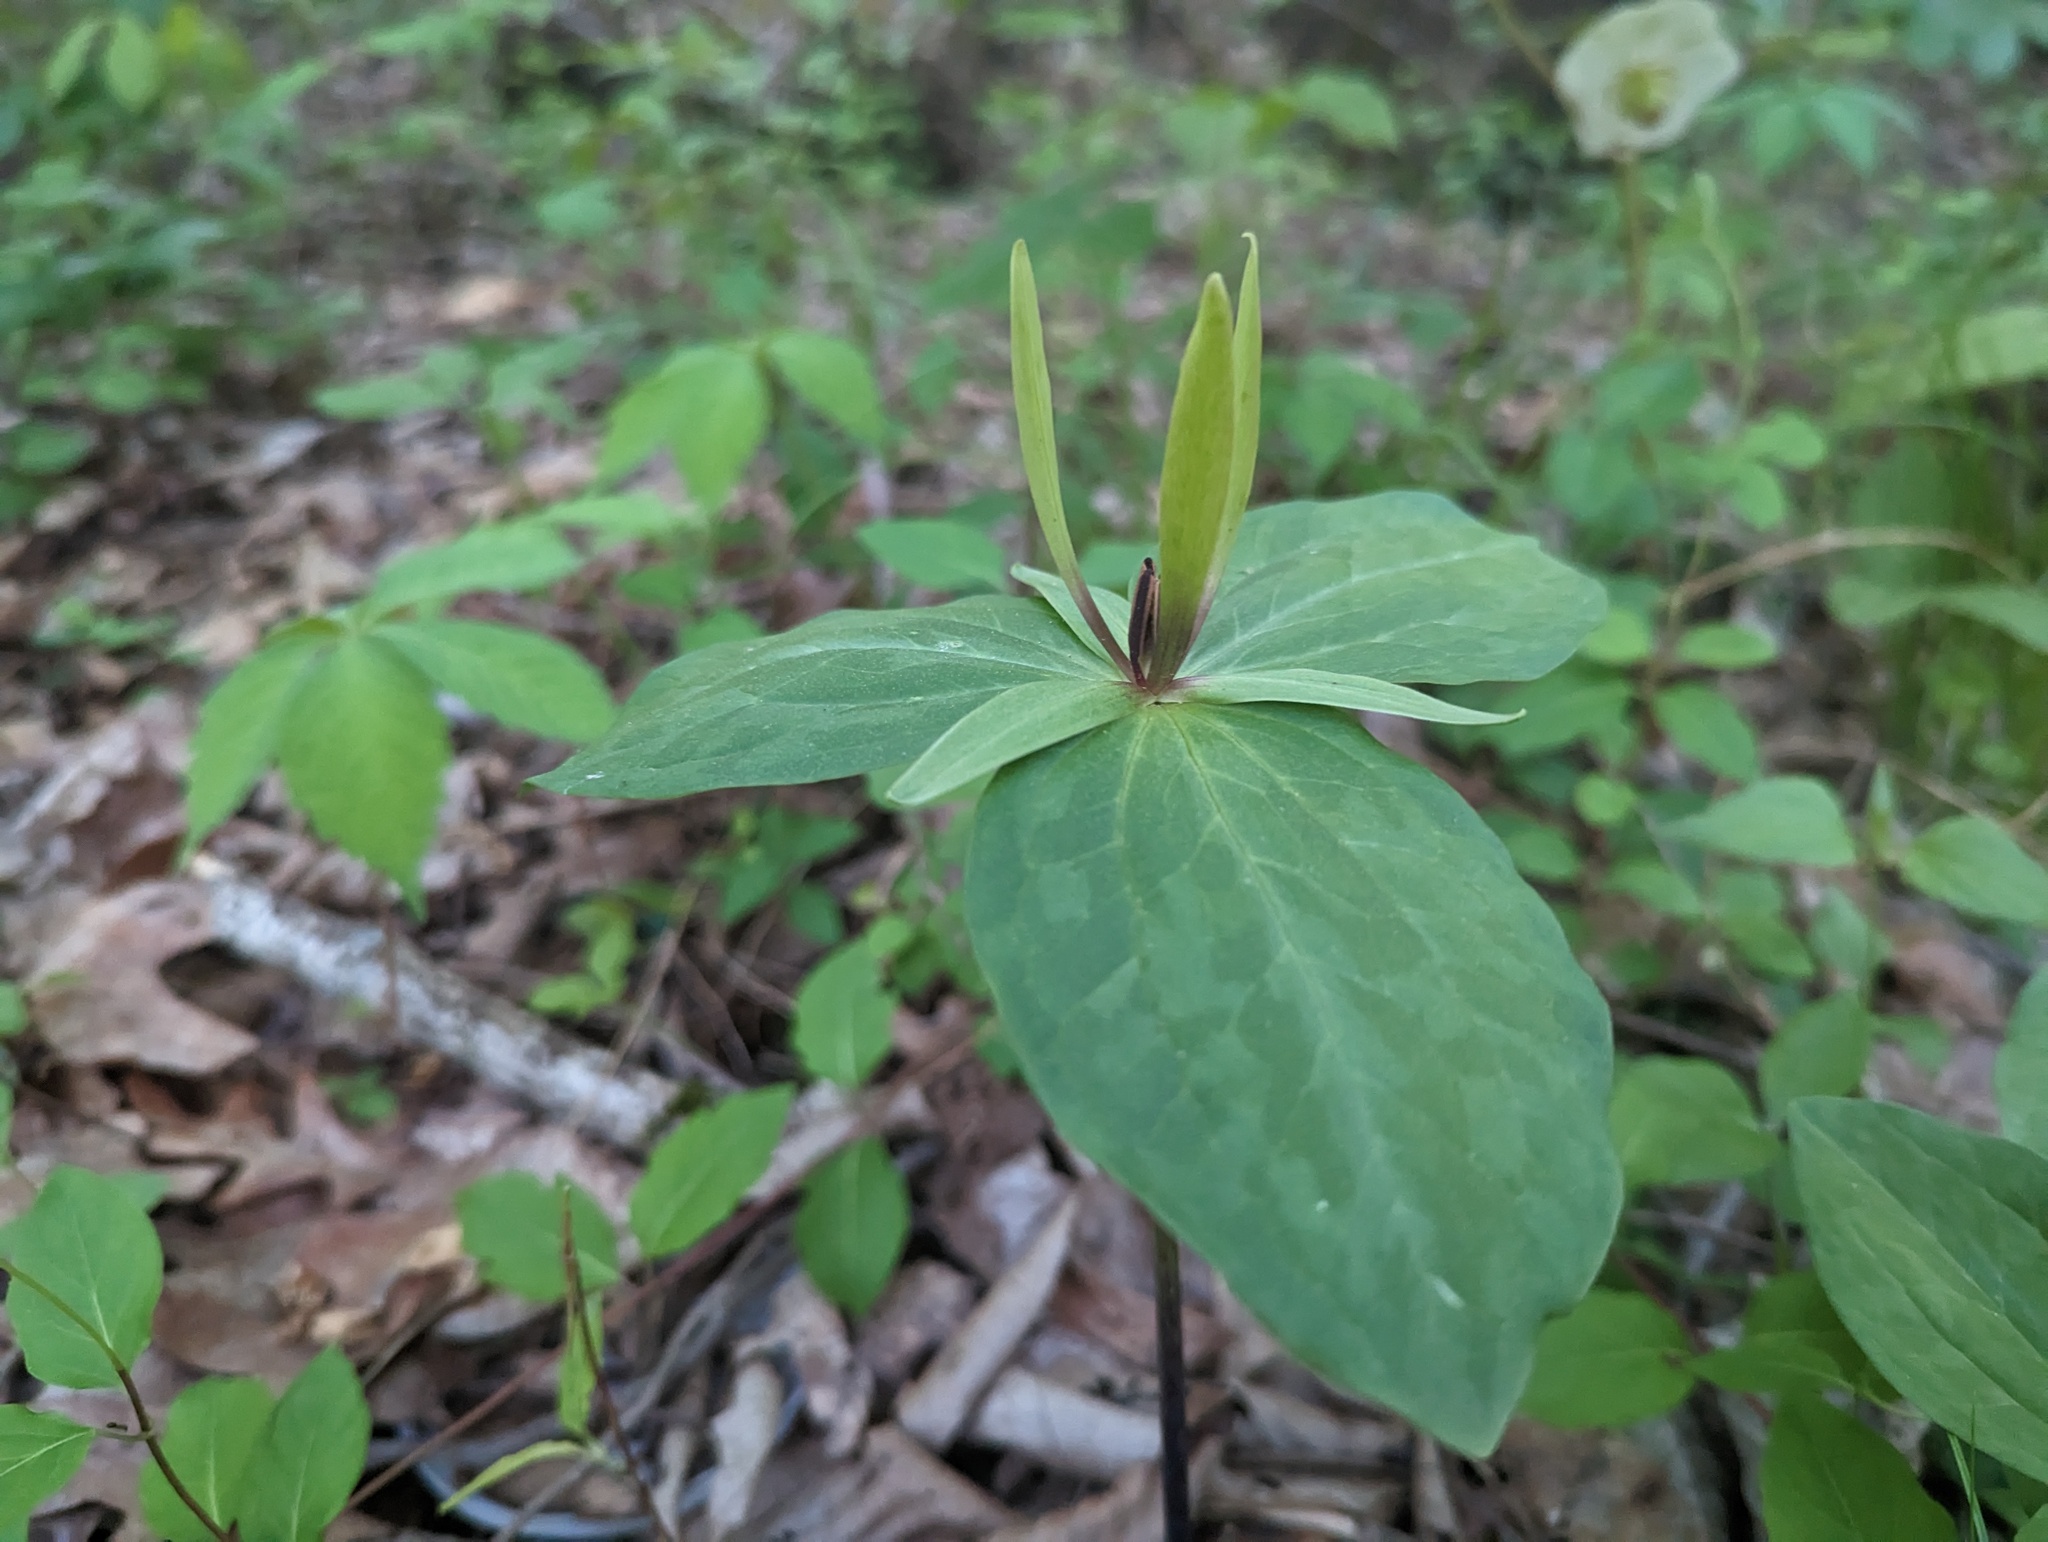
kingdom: Plantae
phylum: Tracheophyta
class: Liliopsida
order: Liliales
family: Melanthiaceae
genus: Trillium
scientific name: Trillium viride
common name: Green trillium
